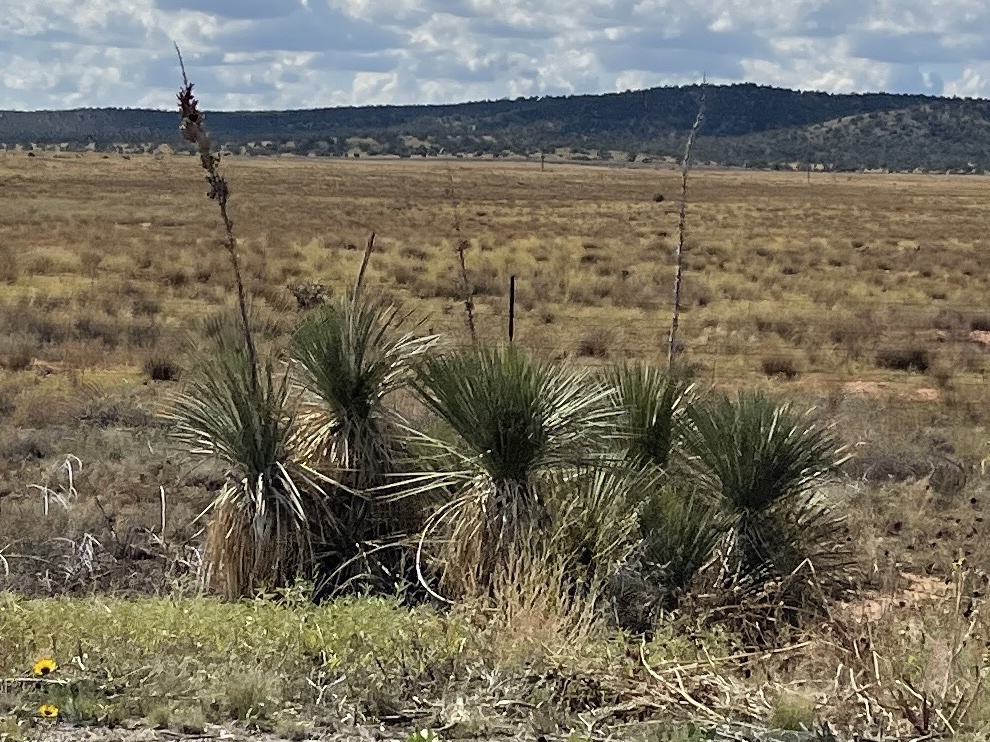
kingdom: Plantae
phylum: Tracheophyta
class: Liliopsida
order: Asparagales
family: Asparagaceae
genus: Yucca
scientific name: Yucca elata
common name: Palmella
